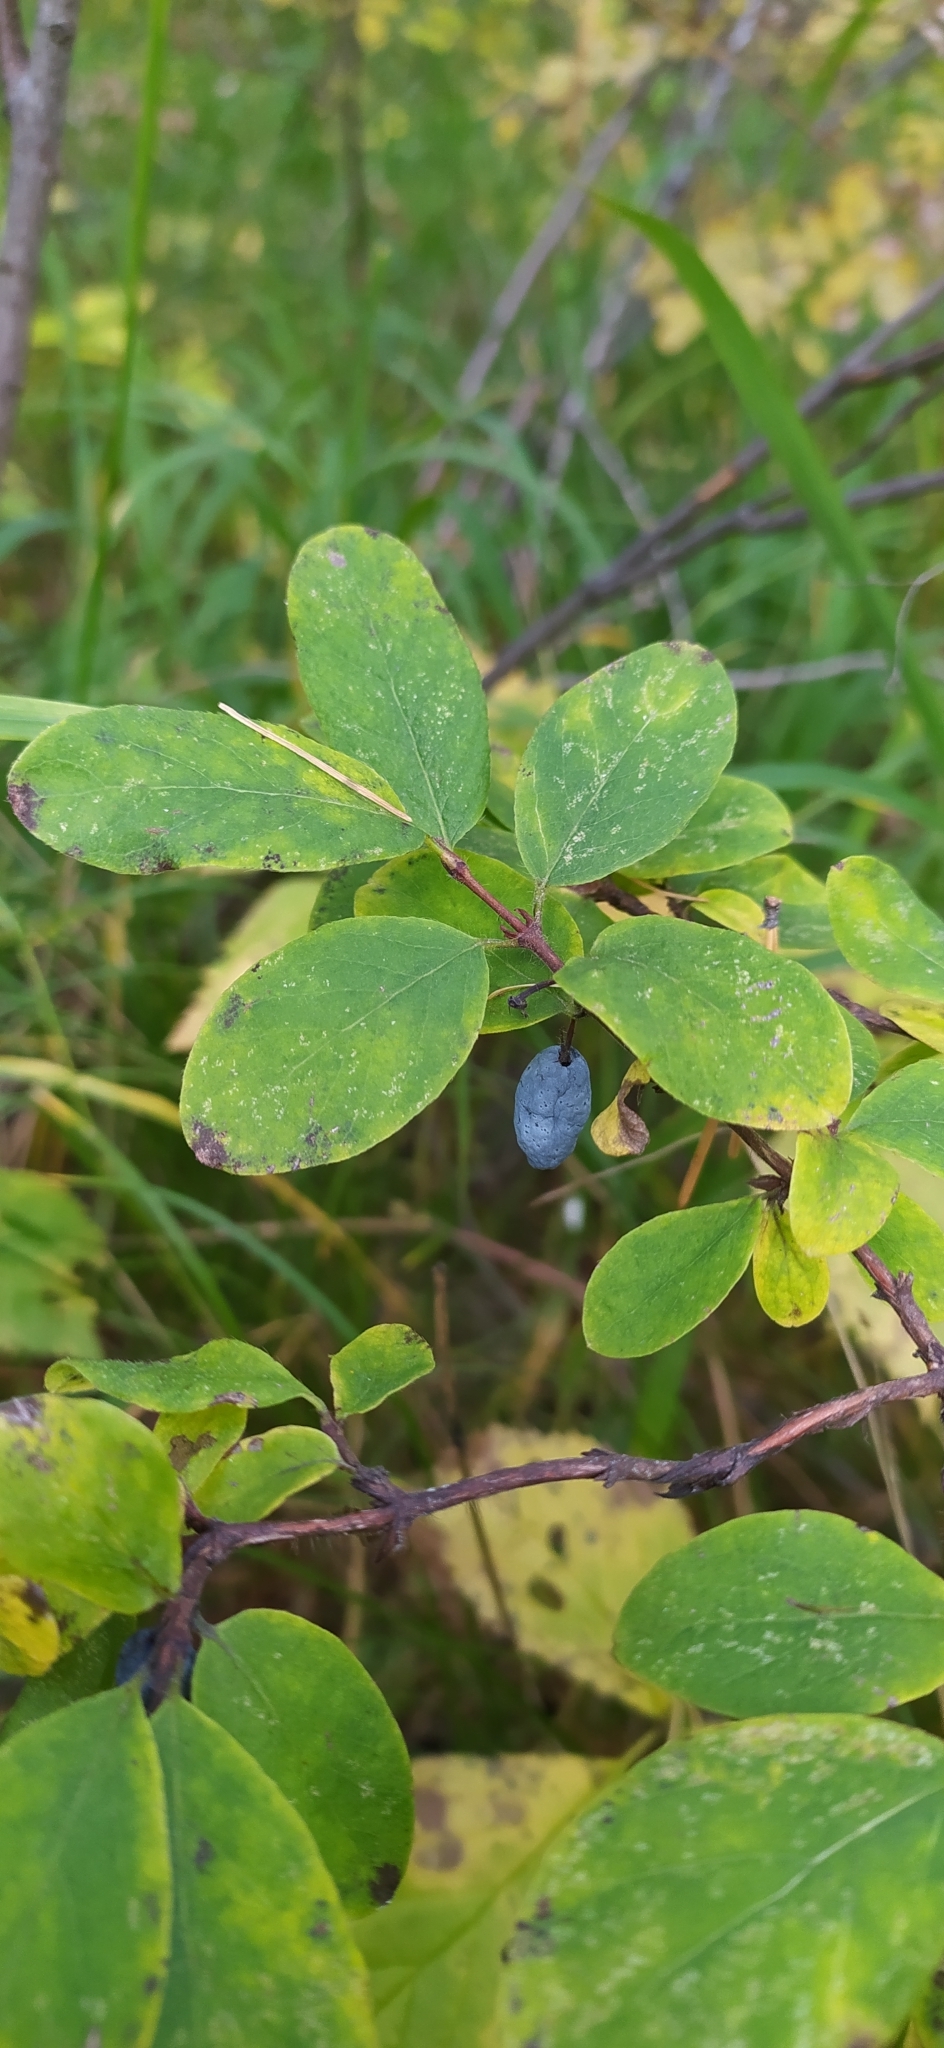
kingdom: Plantae
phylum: Tracheophyta
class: Magnoliopsida
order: Dipsacales
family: Caprifoliaceae
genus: Lonicera
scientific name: Lonicera caerulea
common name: Blue honeysuckle
